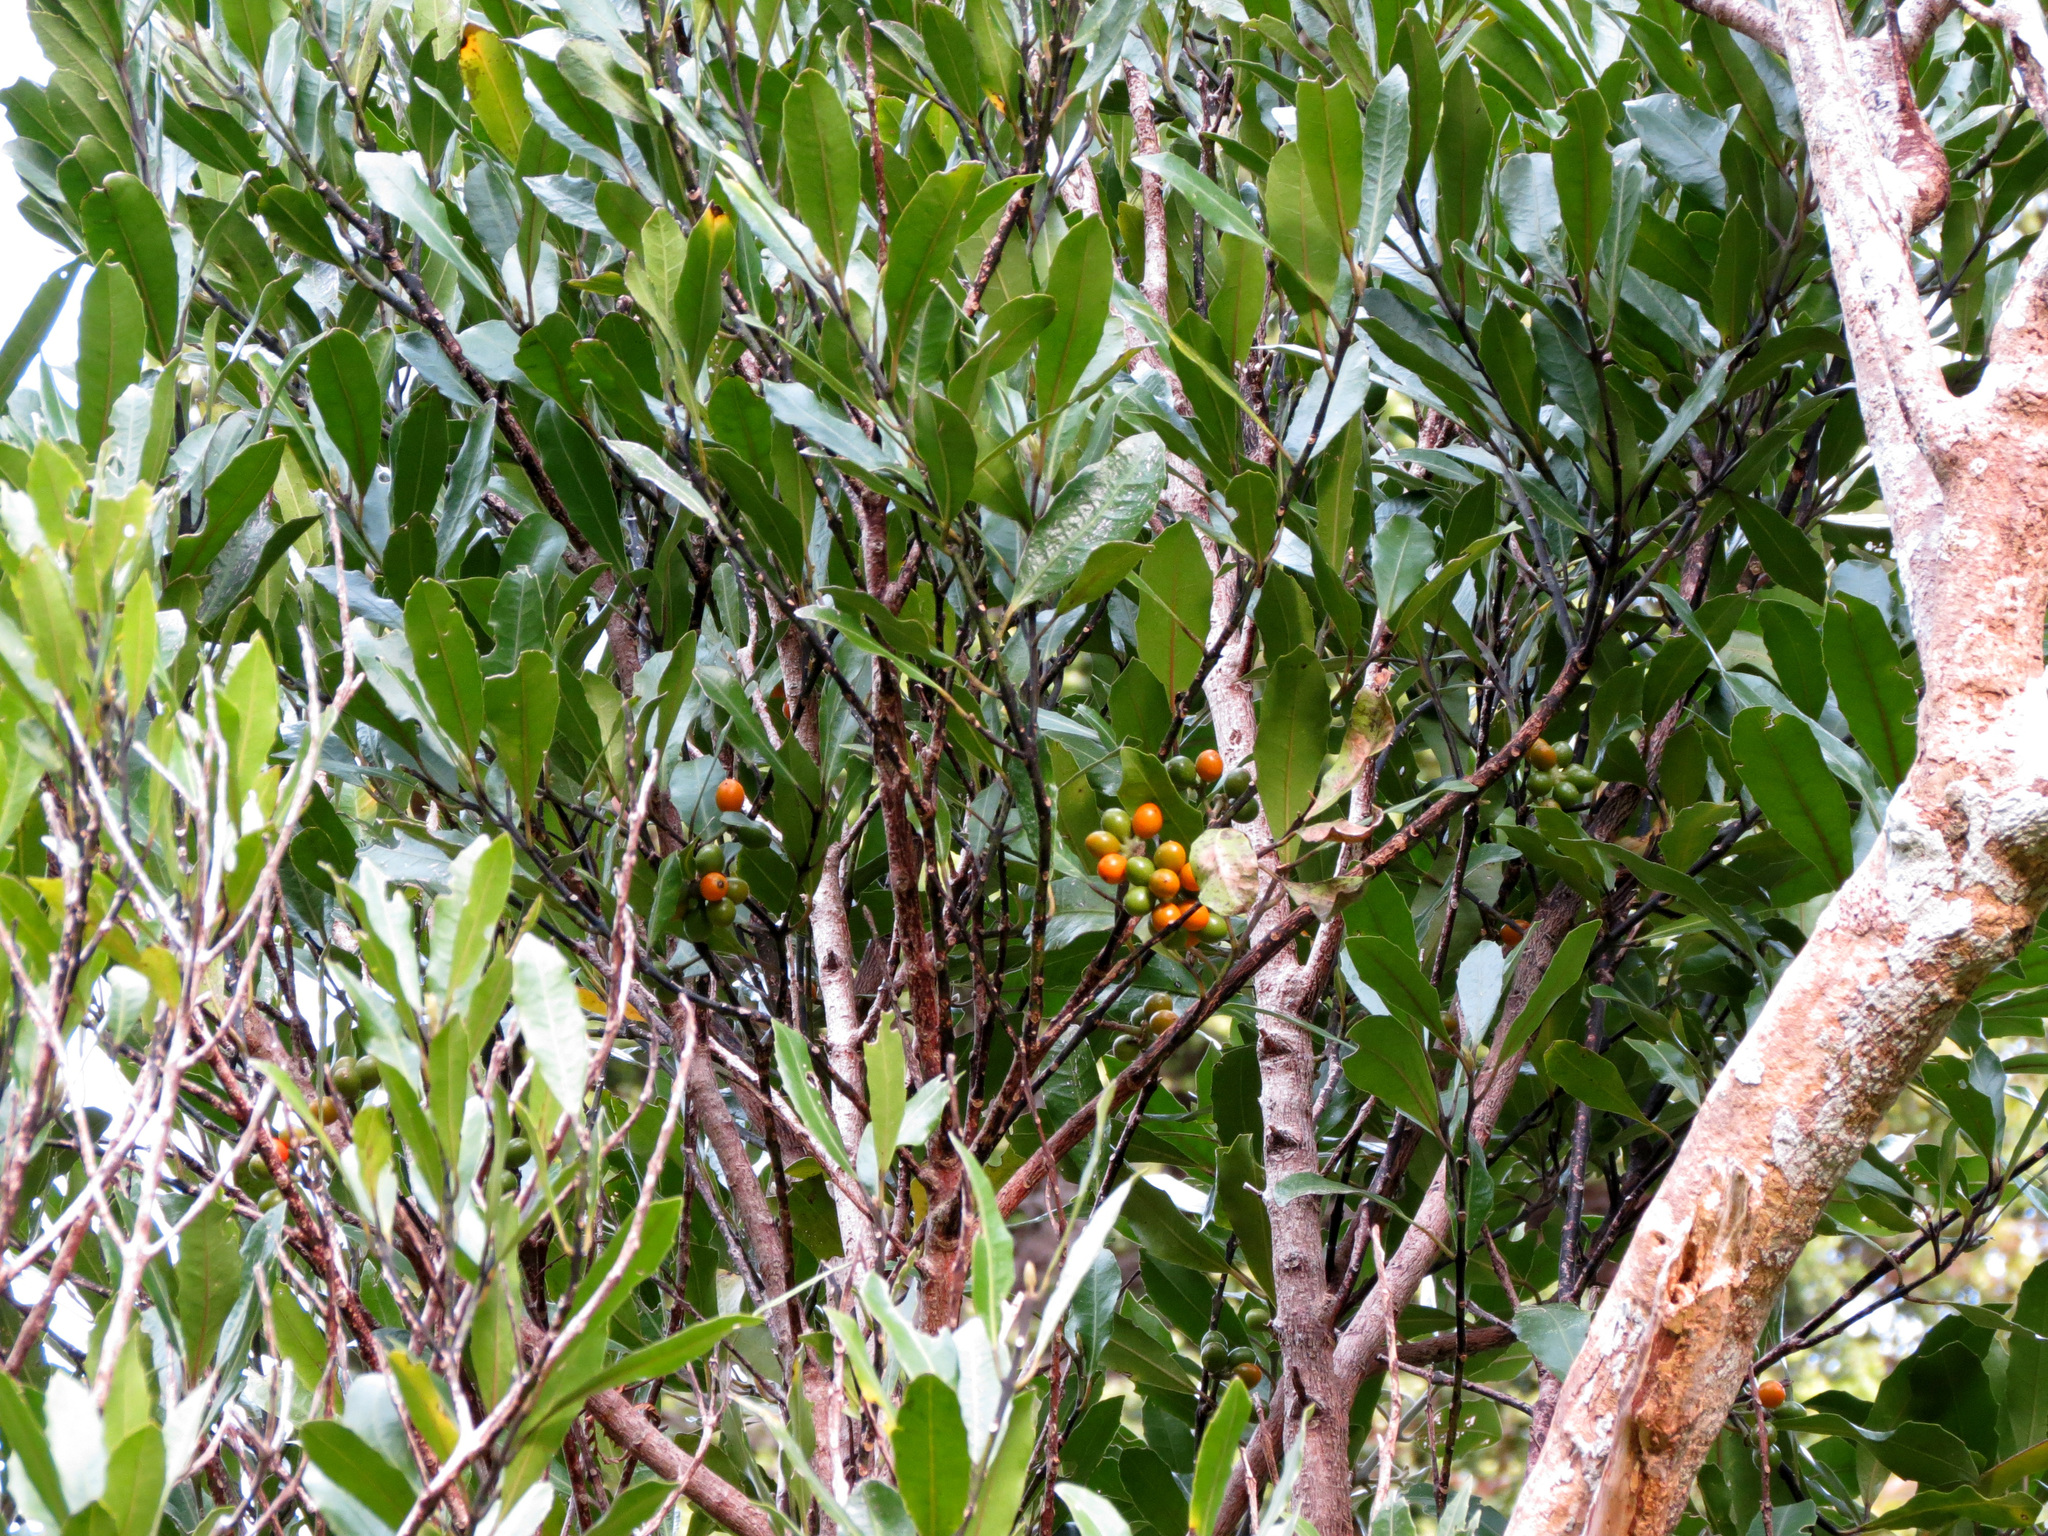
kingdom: Plantae
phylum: Tracheophyta
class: Magnoliopsida
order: Laurales
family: Monimiaceae
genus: Hedycarya
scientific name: Hedycarya arborea
